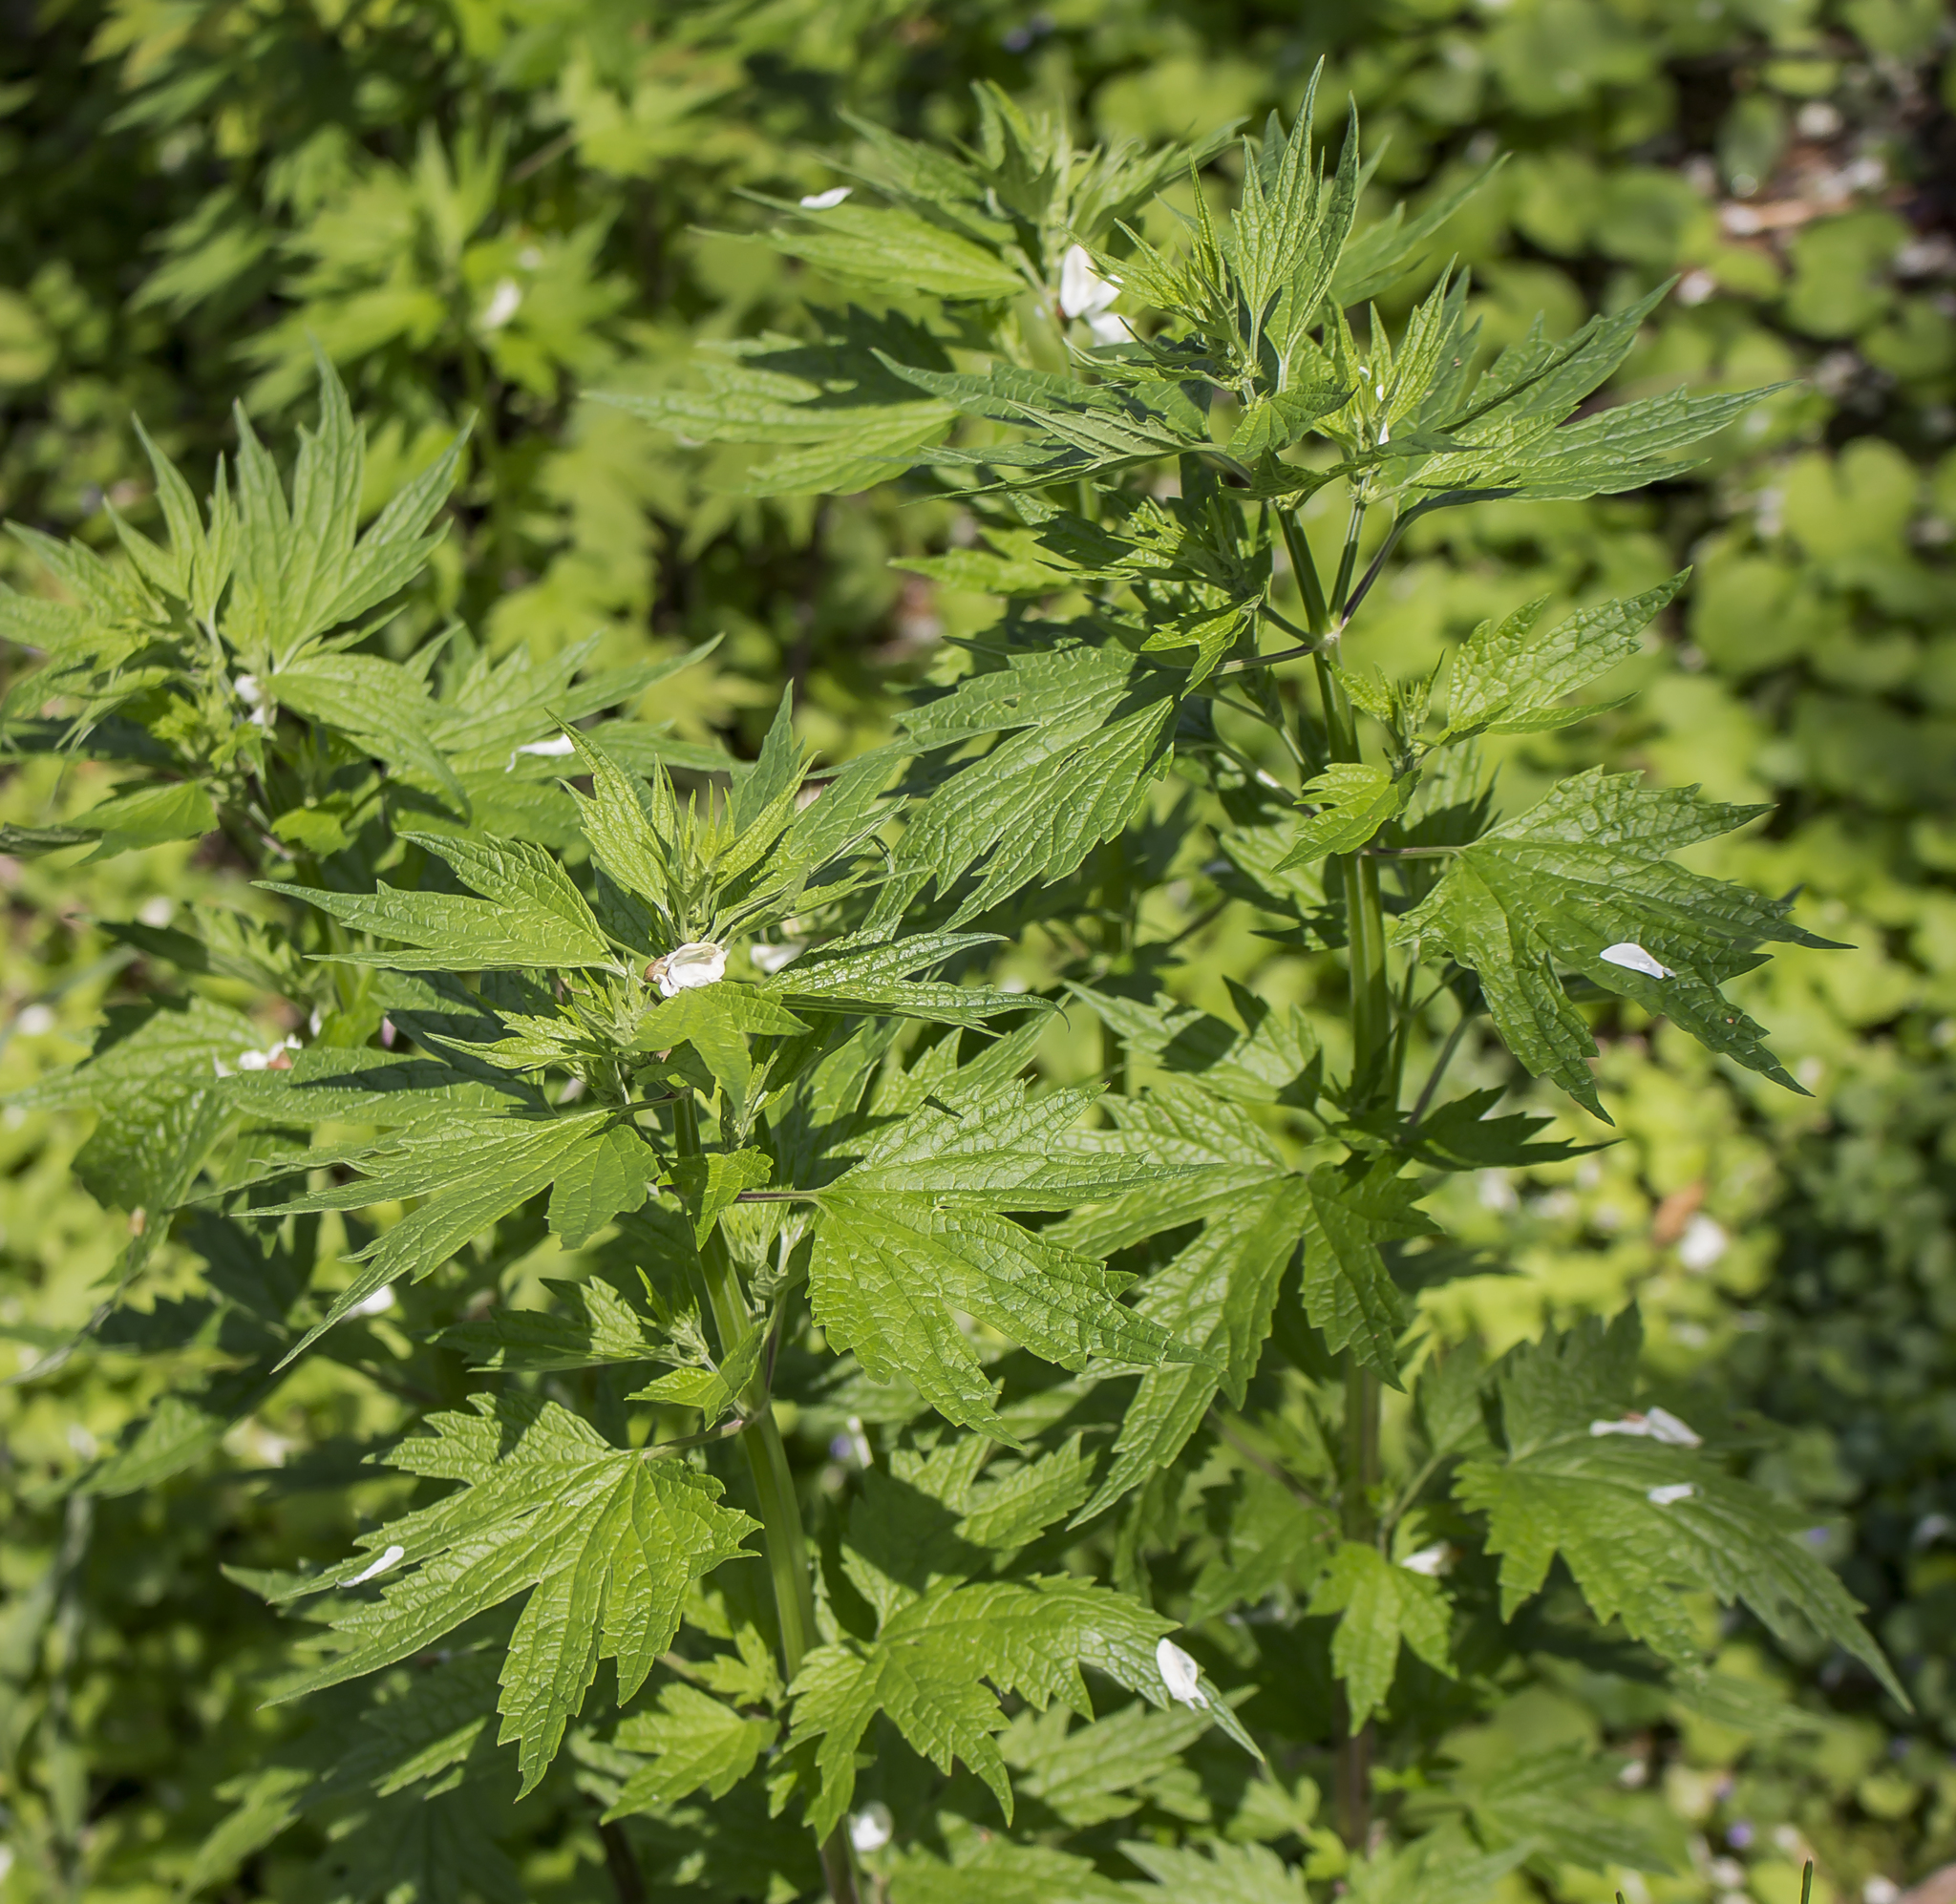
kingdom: Plantae
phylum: Tracheophyta
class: Magnoliopsida
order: Lamiales
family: Lamiaceae
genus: Leonurus
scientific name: Leonurus cardiaca
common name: Motherwort
